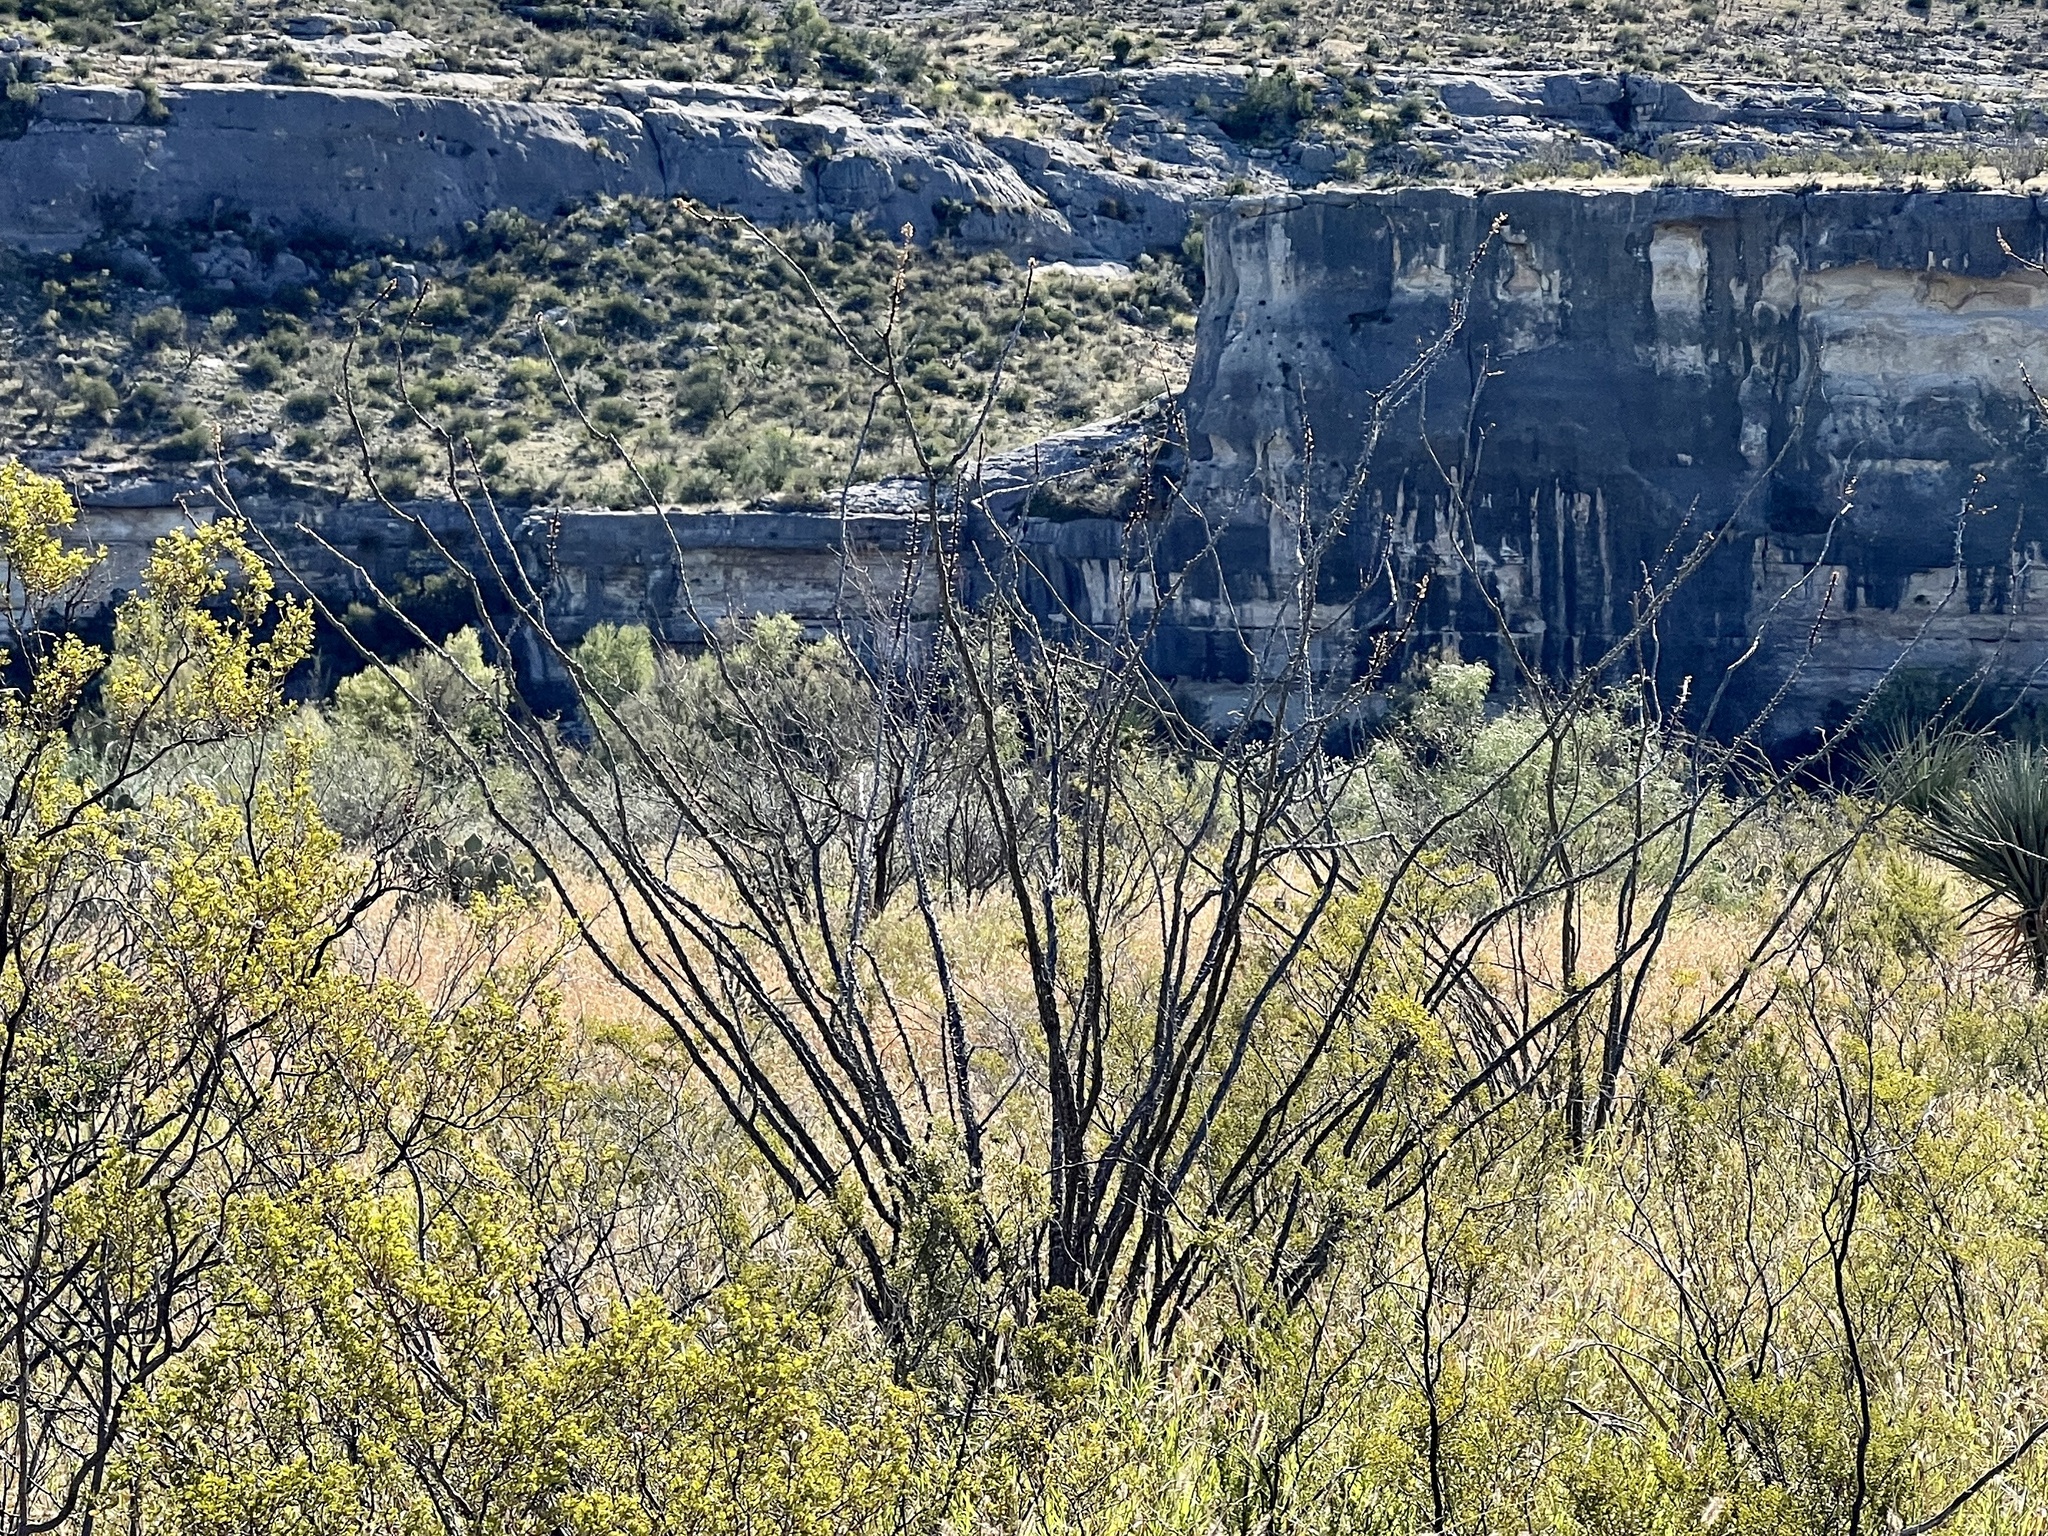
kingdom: Plantae
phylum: Tracheophyta
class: Magnoliopsida
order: Ericales
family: Fouquieriaceae
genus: Fouquieria
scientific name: Fouquieria splendens
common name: Vine-cactus
